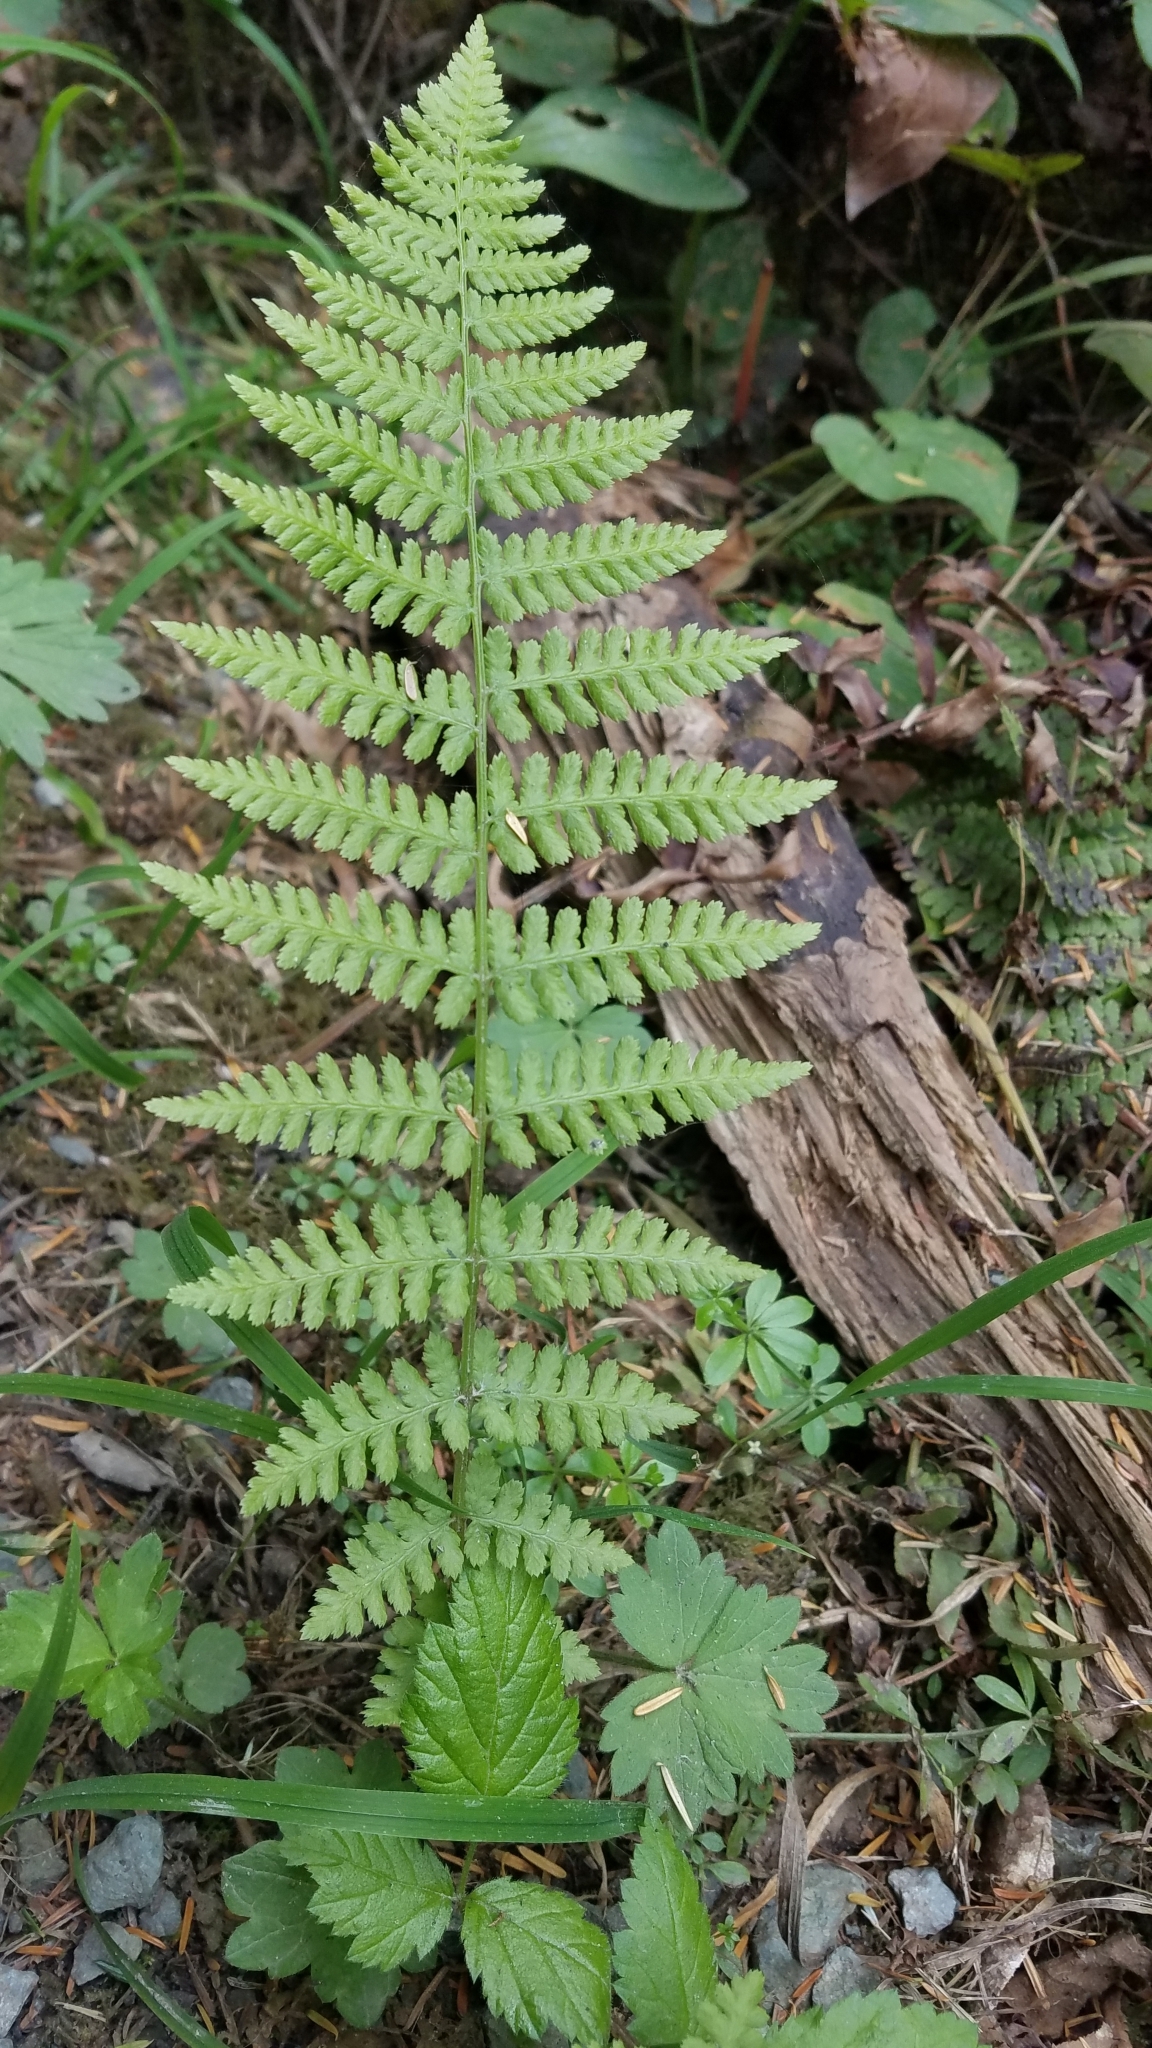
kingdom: Plantae
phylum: Tracheophyta
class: Polypodiopsida
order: Polypodiales
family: Athyriaceae
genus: Athyrium
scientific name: Athyrium filix-femina
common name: Lady fern
